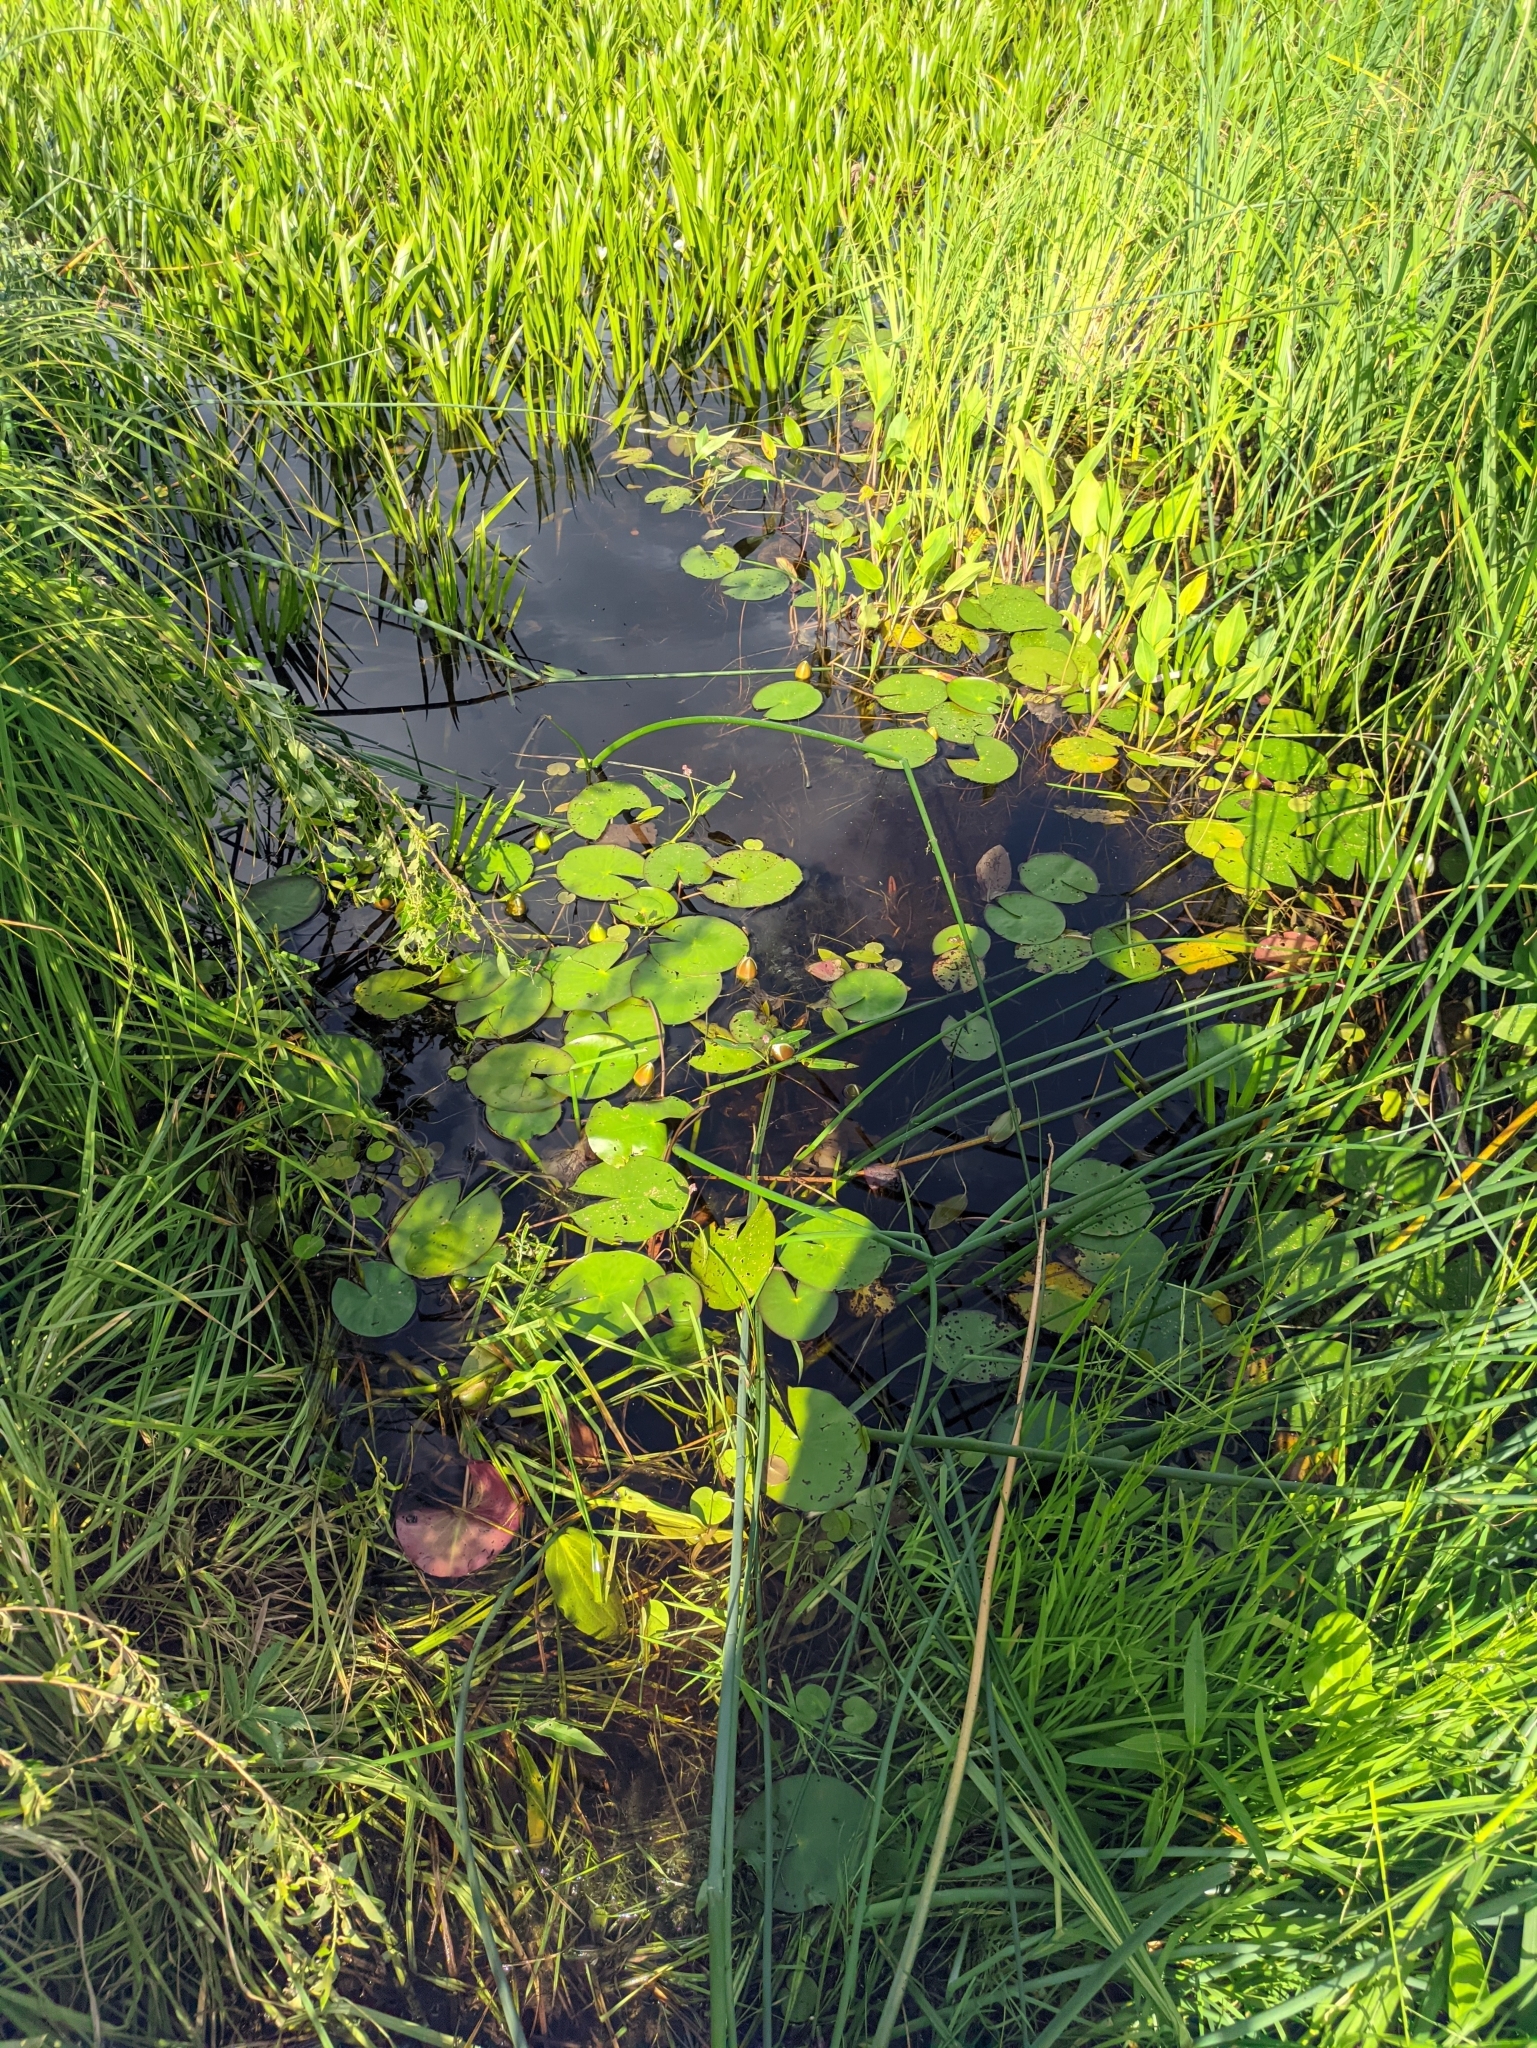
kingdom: Plantae
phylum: Tracheophyta
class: Magnoliopsida
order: Nymphaeales
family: Nymphaeaceae
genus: Nymphaea
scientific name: Nymphaea candida
